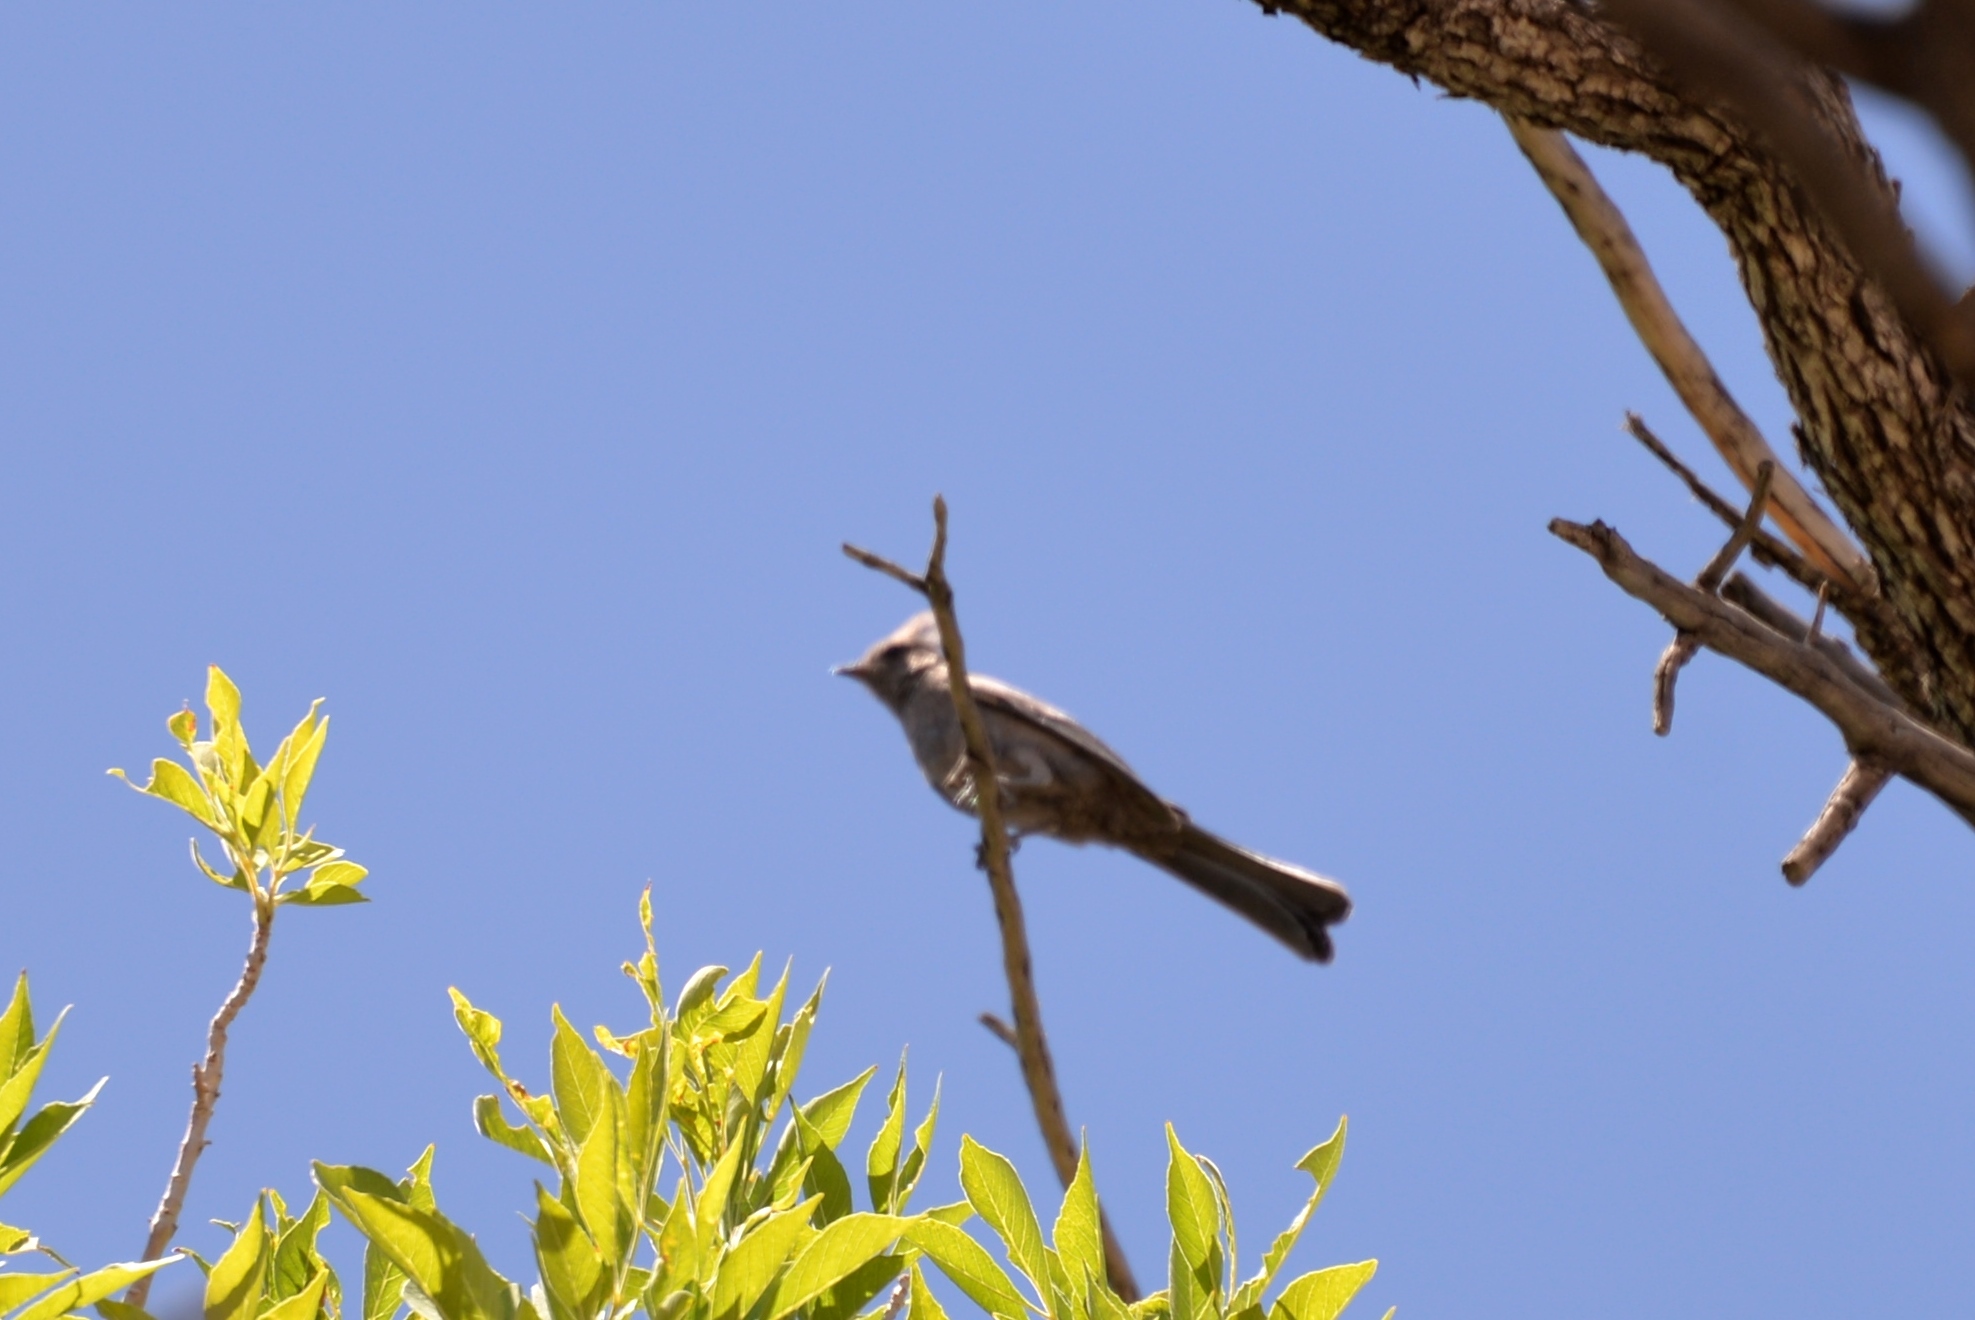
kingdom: Animalia
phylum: Chordata
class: Aves
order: Passeriformes
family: Ptilogonatidae
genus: Phainopepla
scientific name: Phainopepla nitens
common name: Phainopepla
